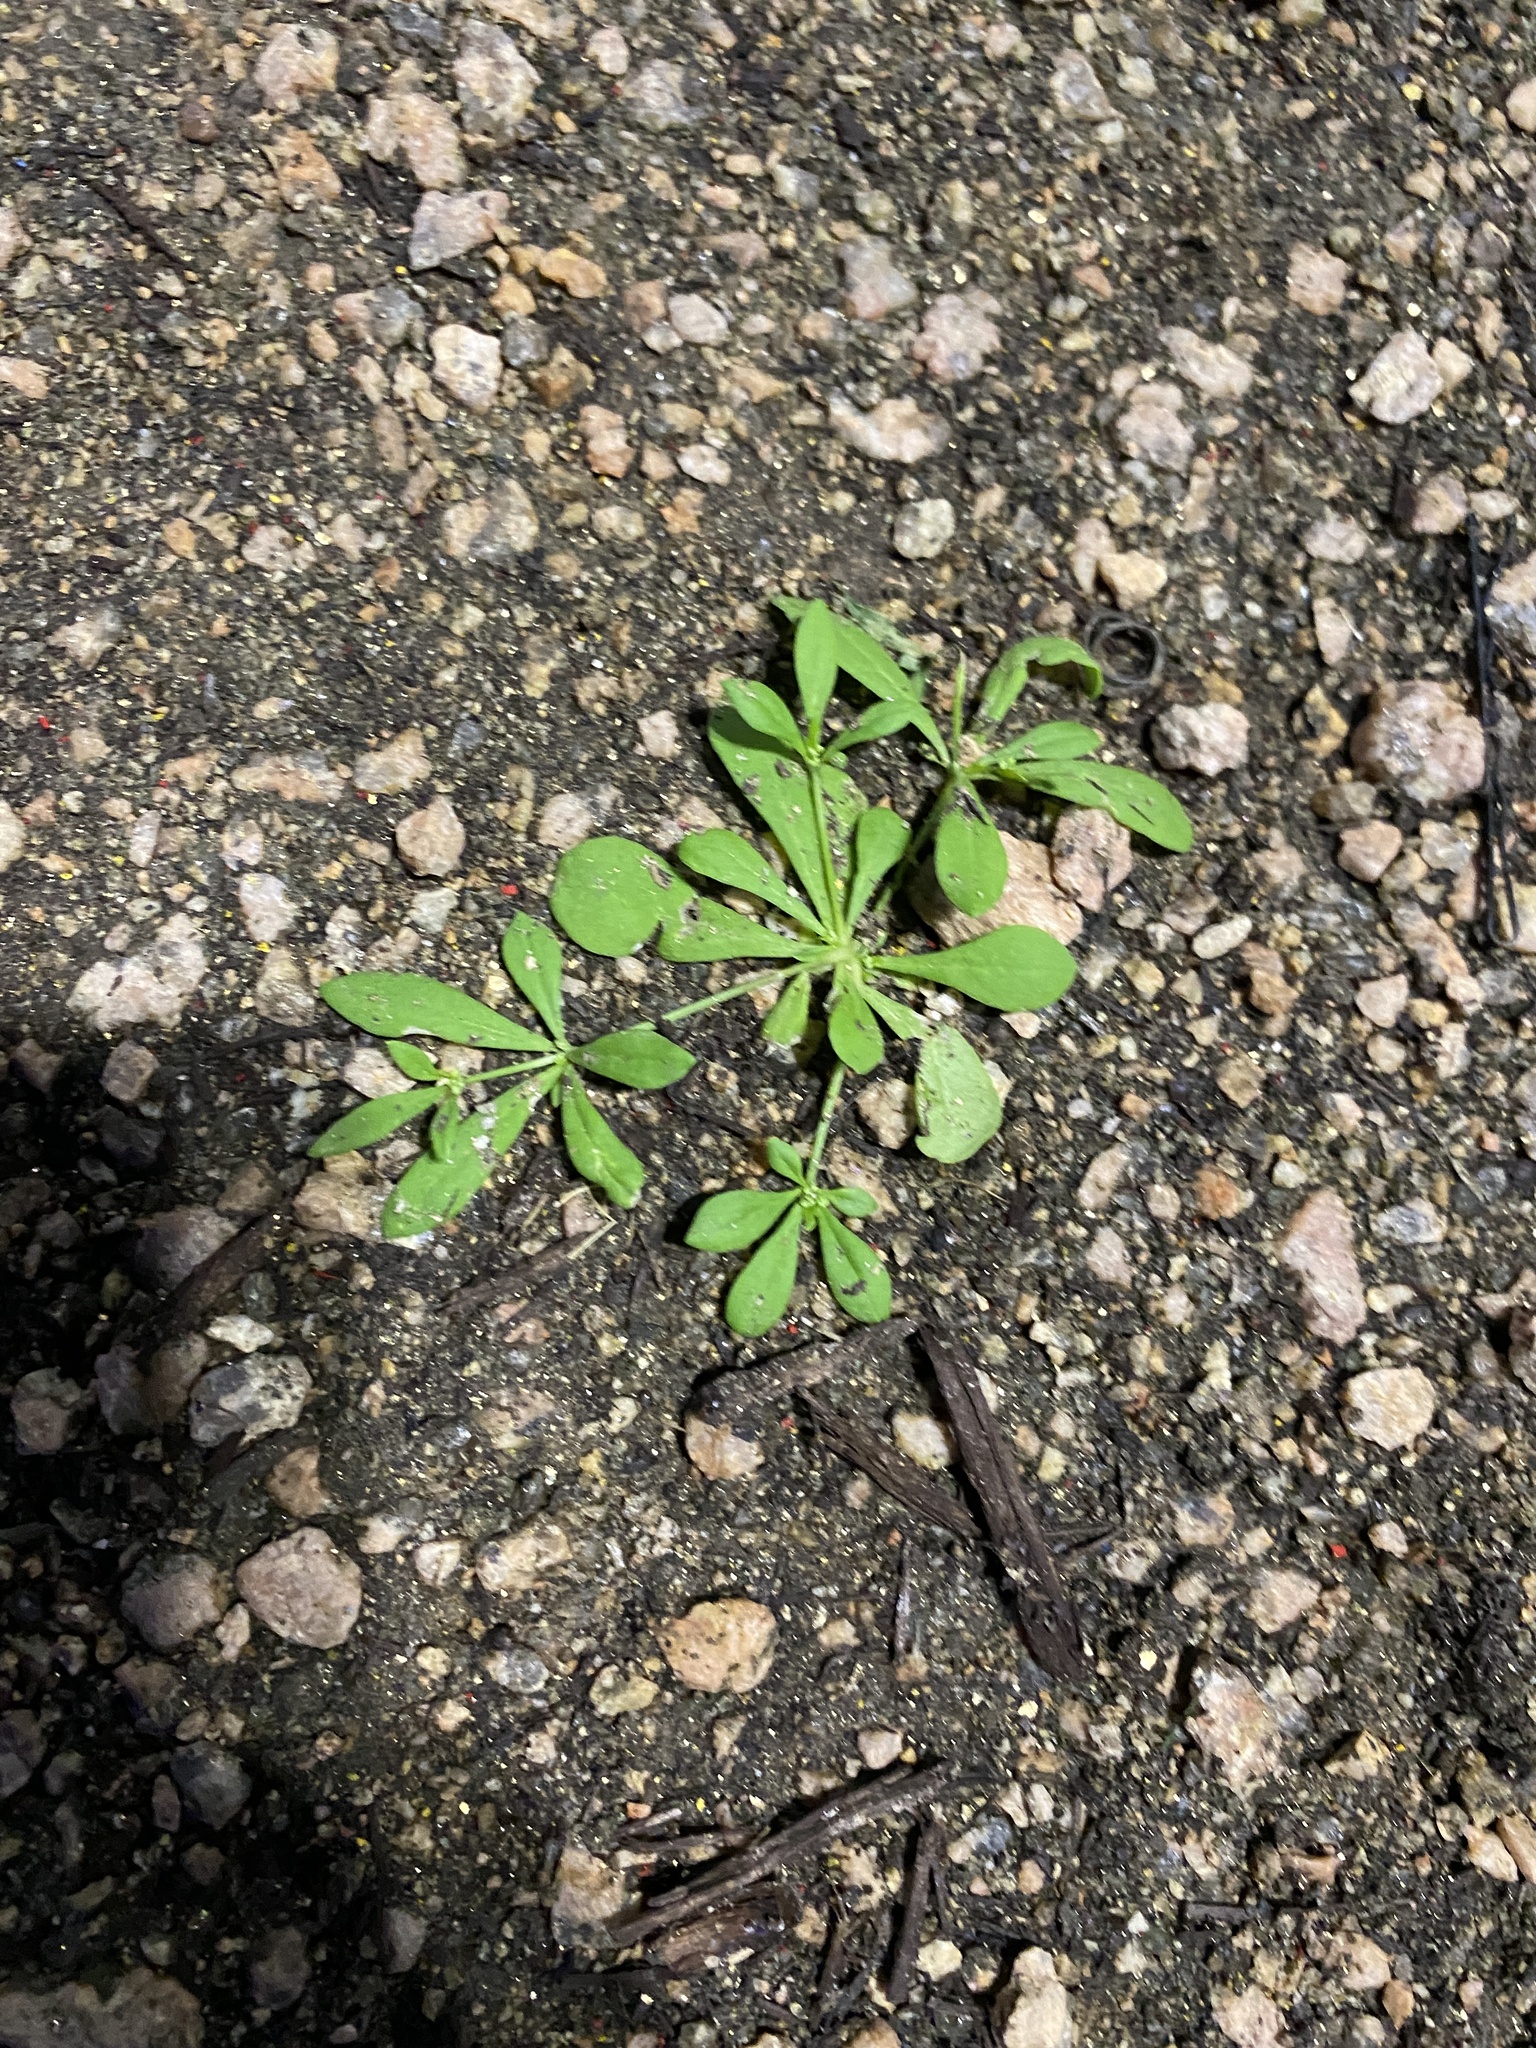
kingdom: Plantae
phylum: Tracheophyta
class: Magnoliopsida
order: Caryophyllales
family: Molluginaceae
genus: Mollugo
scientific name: Mollugo verticillata
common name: Green carpetweed
